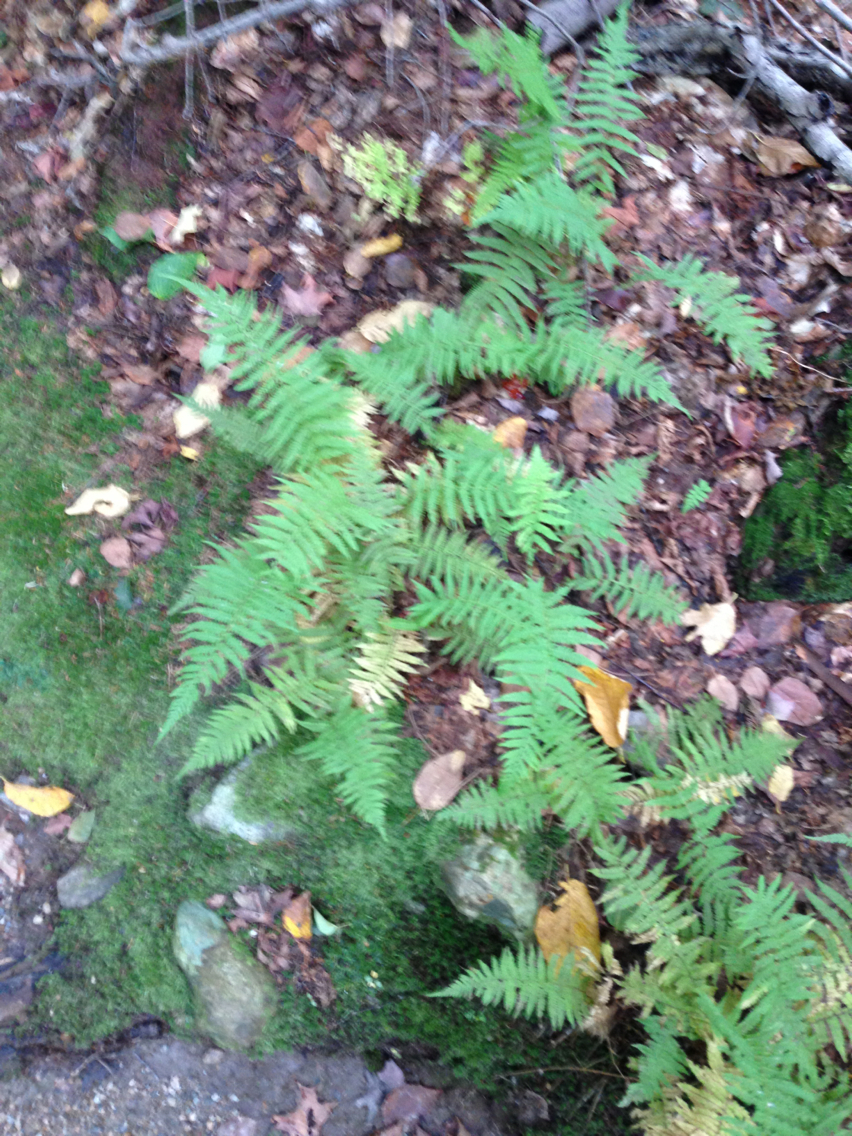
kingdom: Plantae
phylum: Tracheophyta
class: Polypodiopsida
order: Polypodiales
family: Thelypteridaceae
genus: Amauropelta
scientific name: Amauropelta noveboracensis
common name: New york fern
